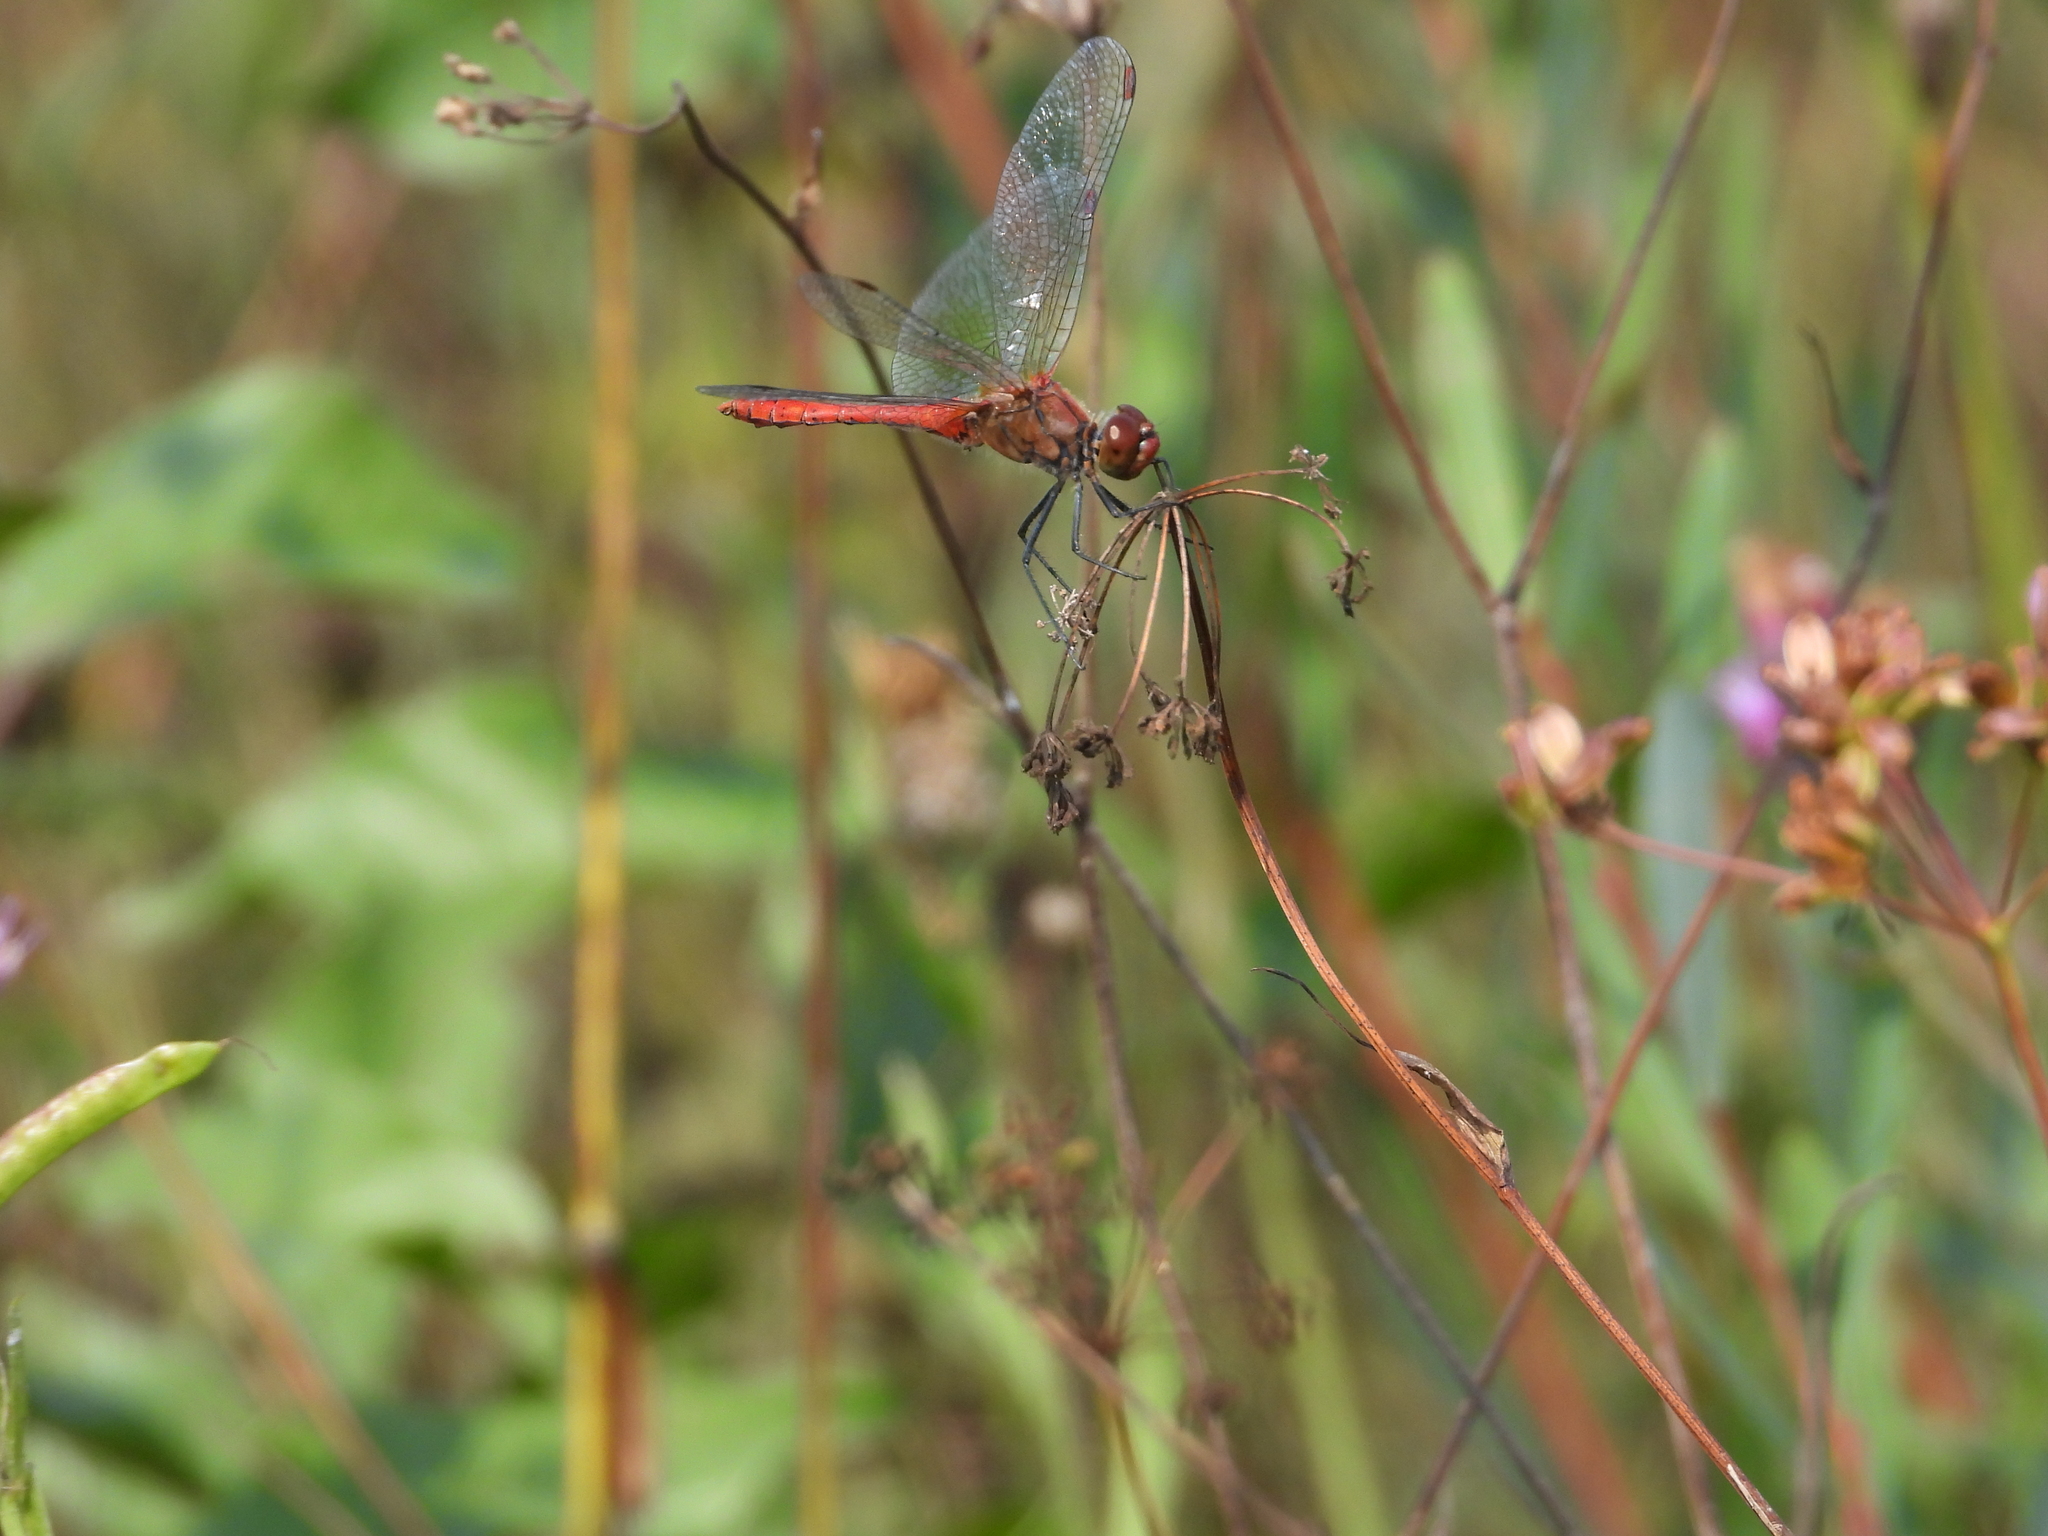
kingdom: Animalia
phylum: Arthropoda
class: Insecta
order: Odonata
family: Libellulidae
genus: Sympetrum
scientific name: Sympetrum sanguineum
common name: Ruddy darter
